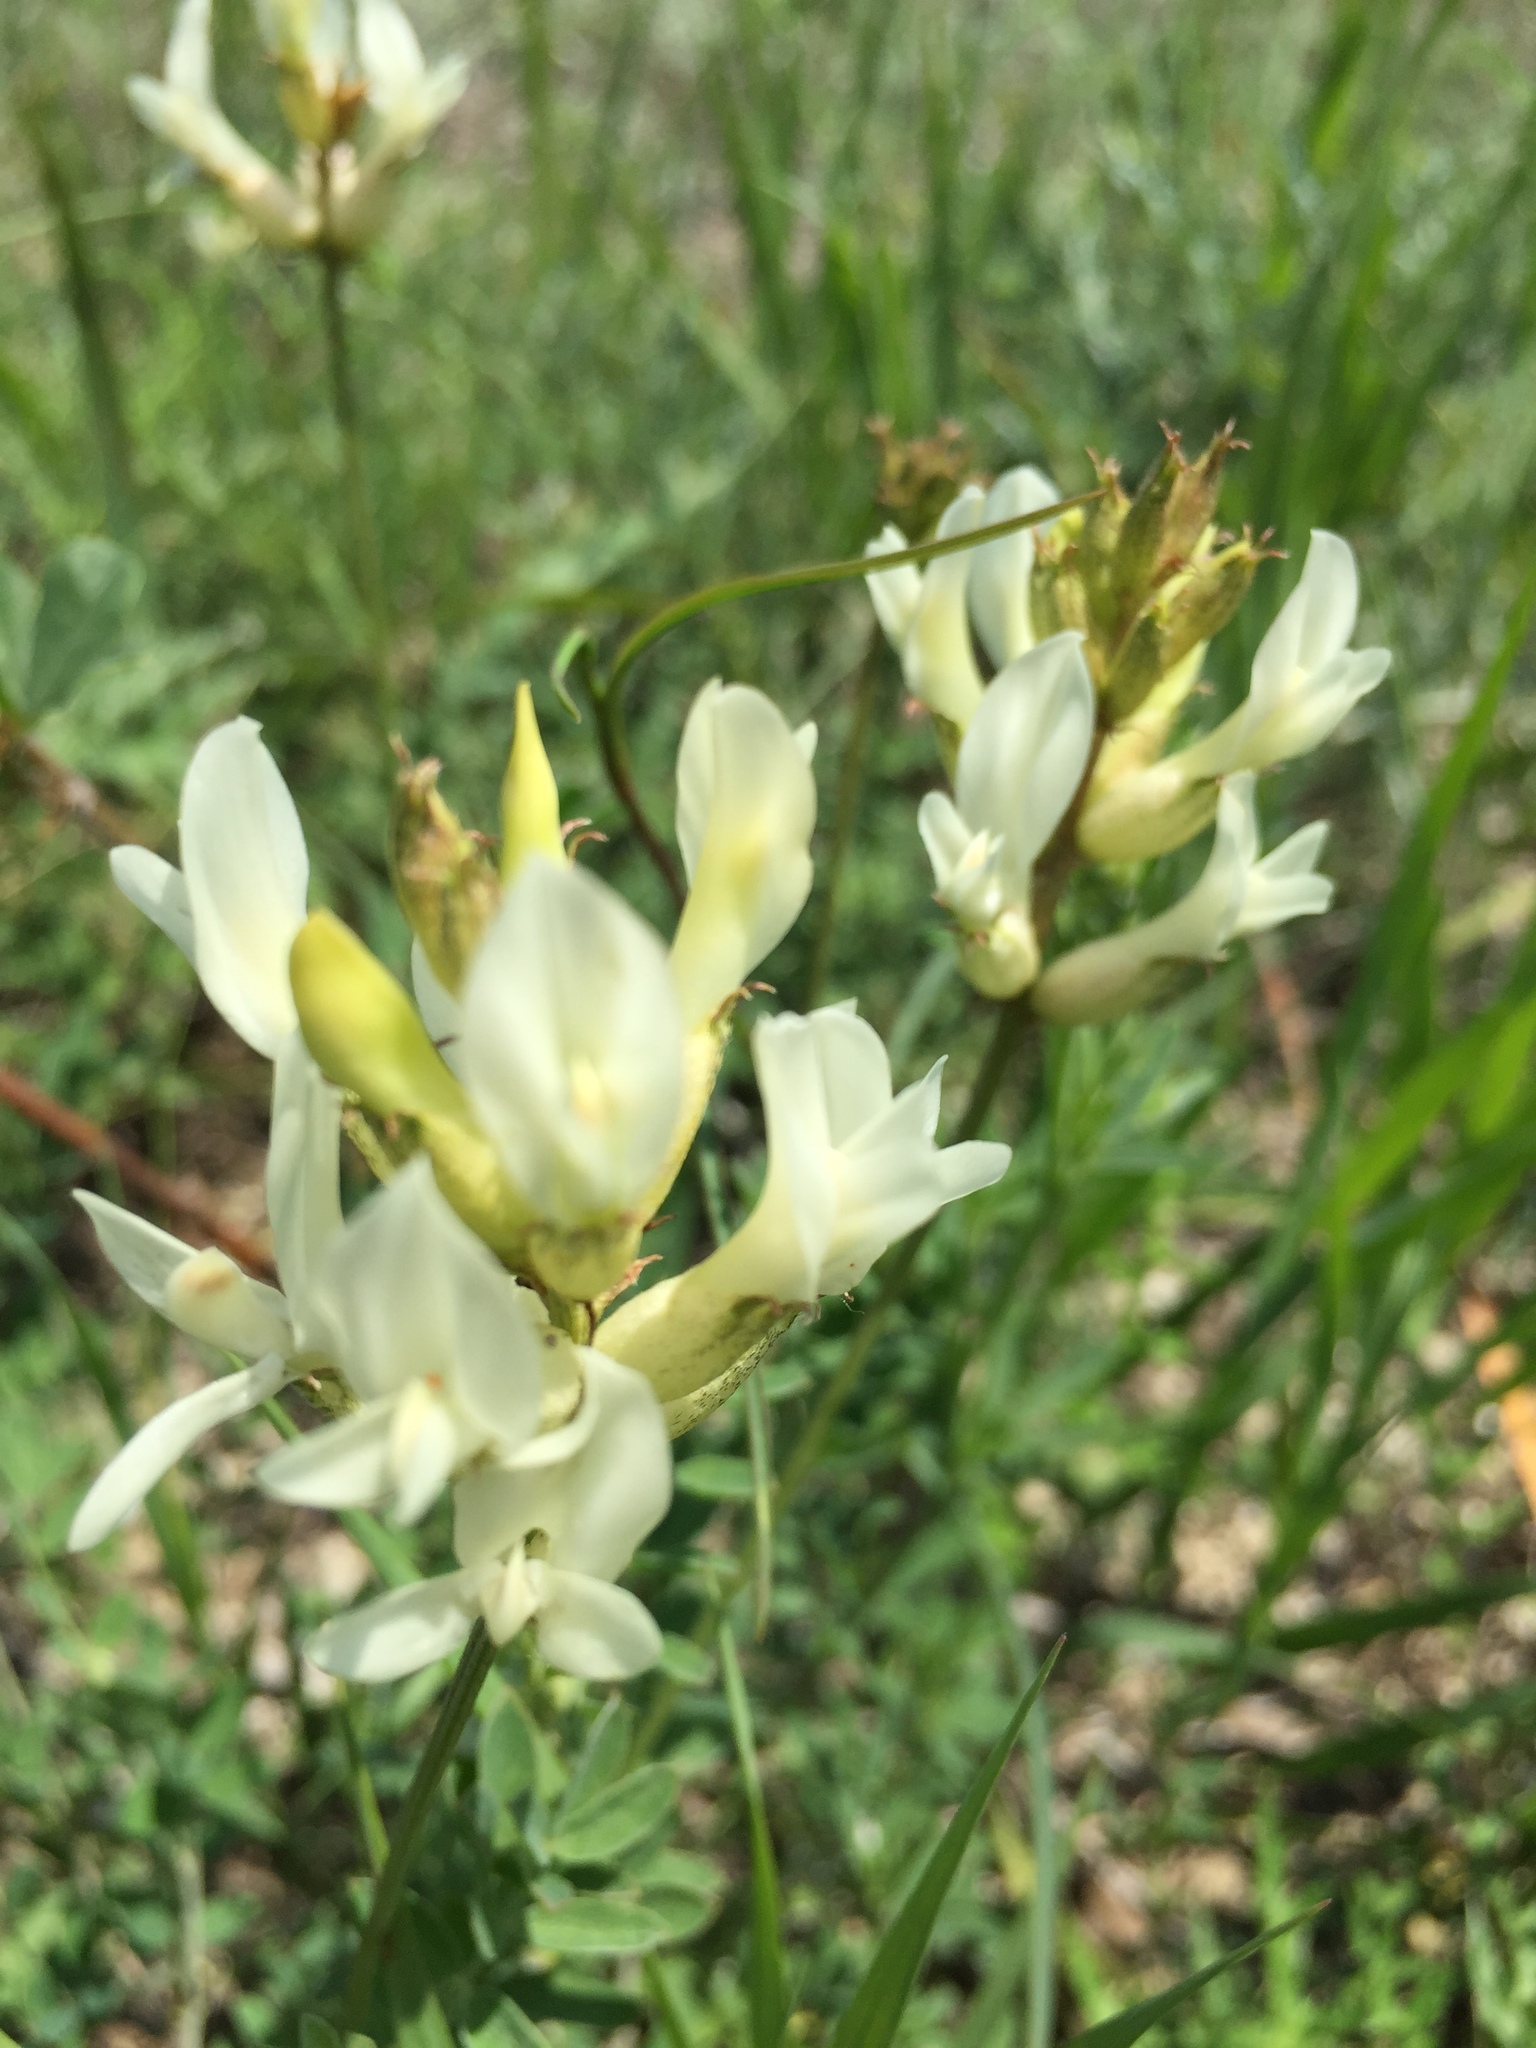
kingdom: Plantae
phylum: Tracheophyta
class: Magnoliopsida
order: Fabales
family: Fabaceae
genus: Astragalus
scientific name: Astragalus albicaulis
